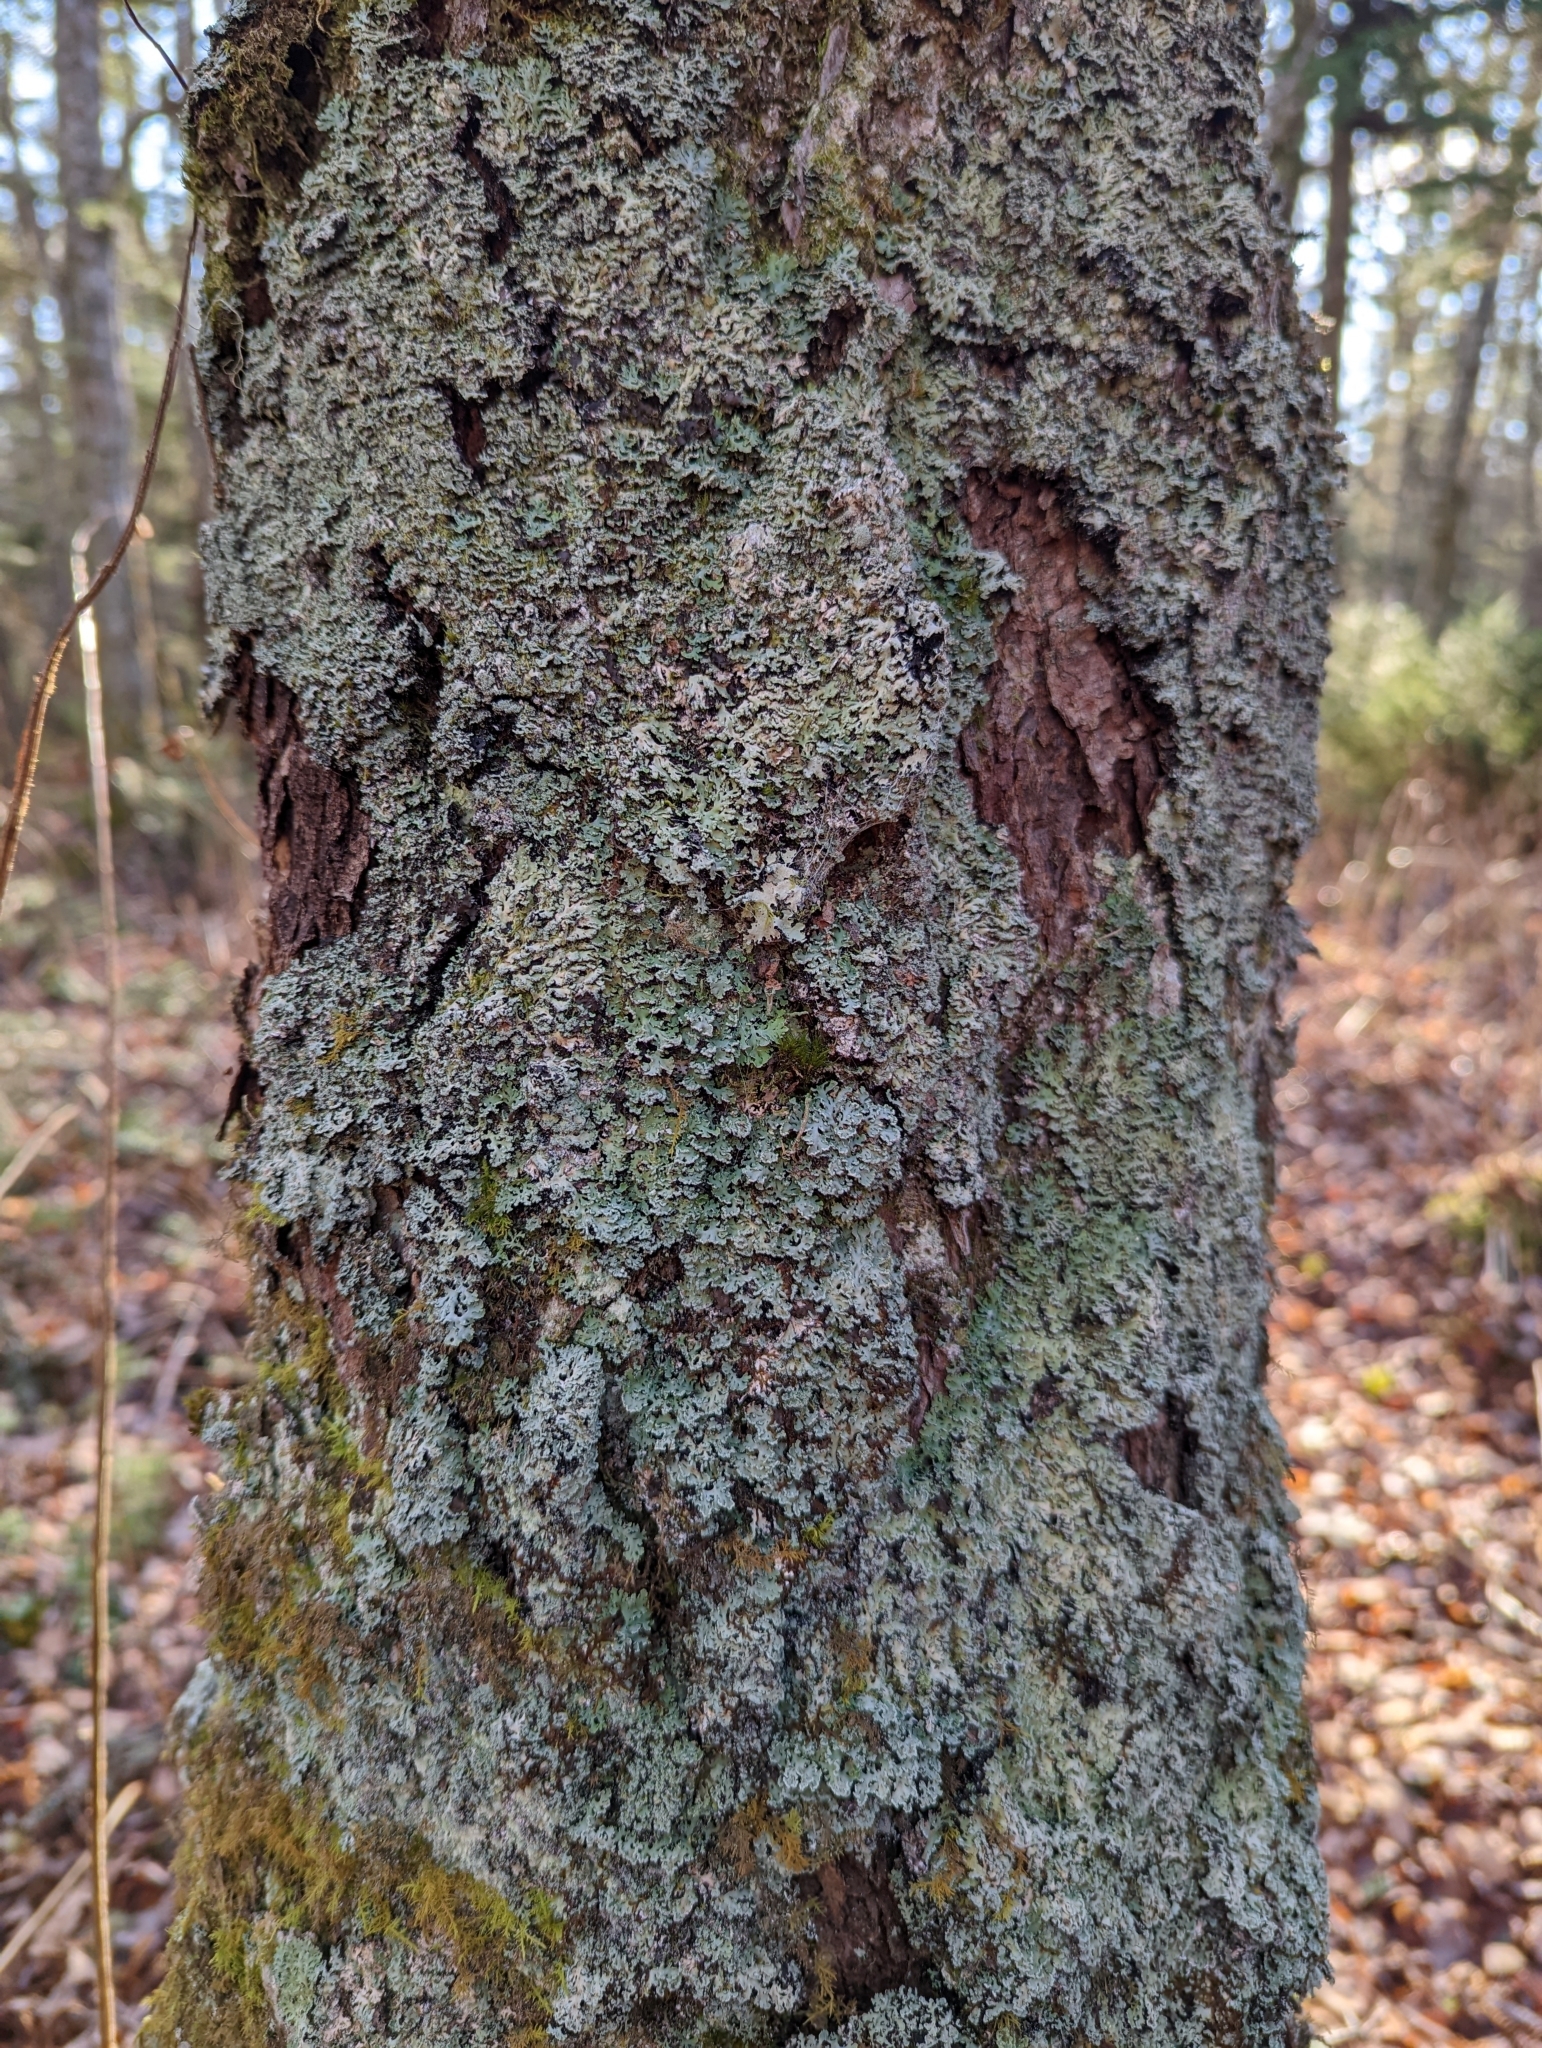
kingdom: Fungi
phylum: Ascomycota
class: Lecanoromycetes
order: Caliciales
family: Physciaceae
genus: Polyblastidium
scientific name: Polyblastidium neglectum
